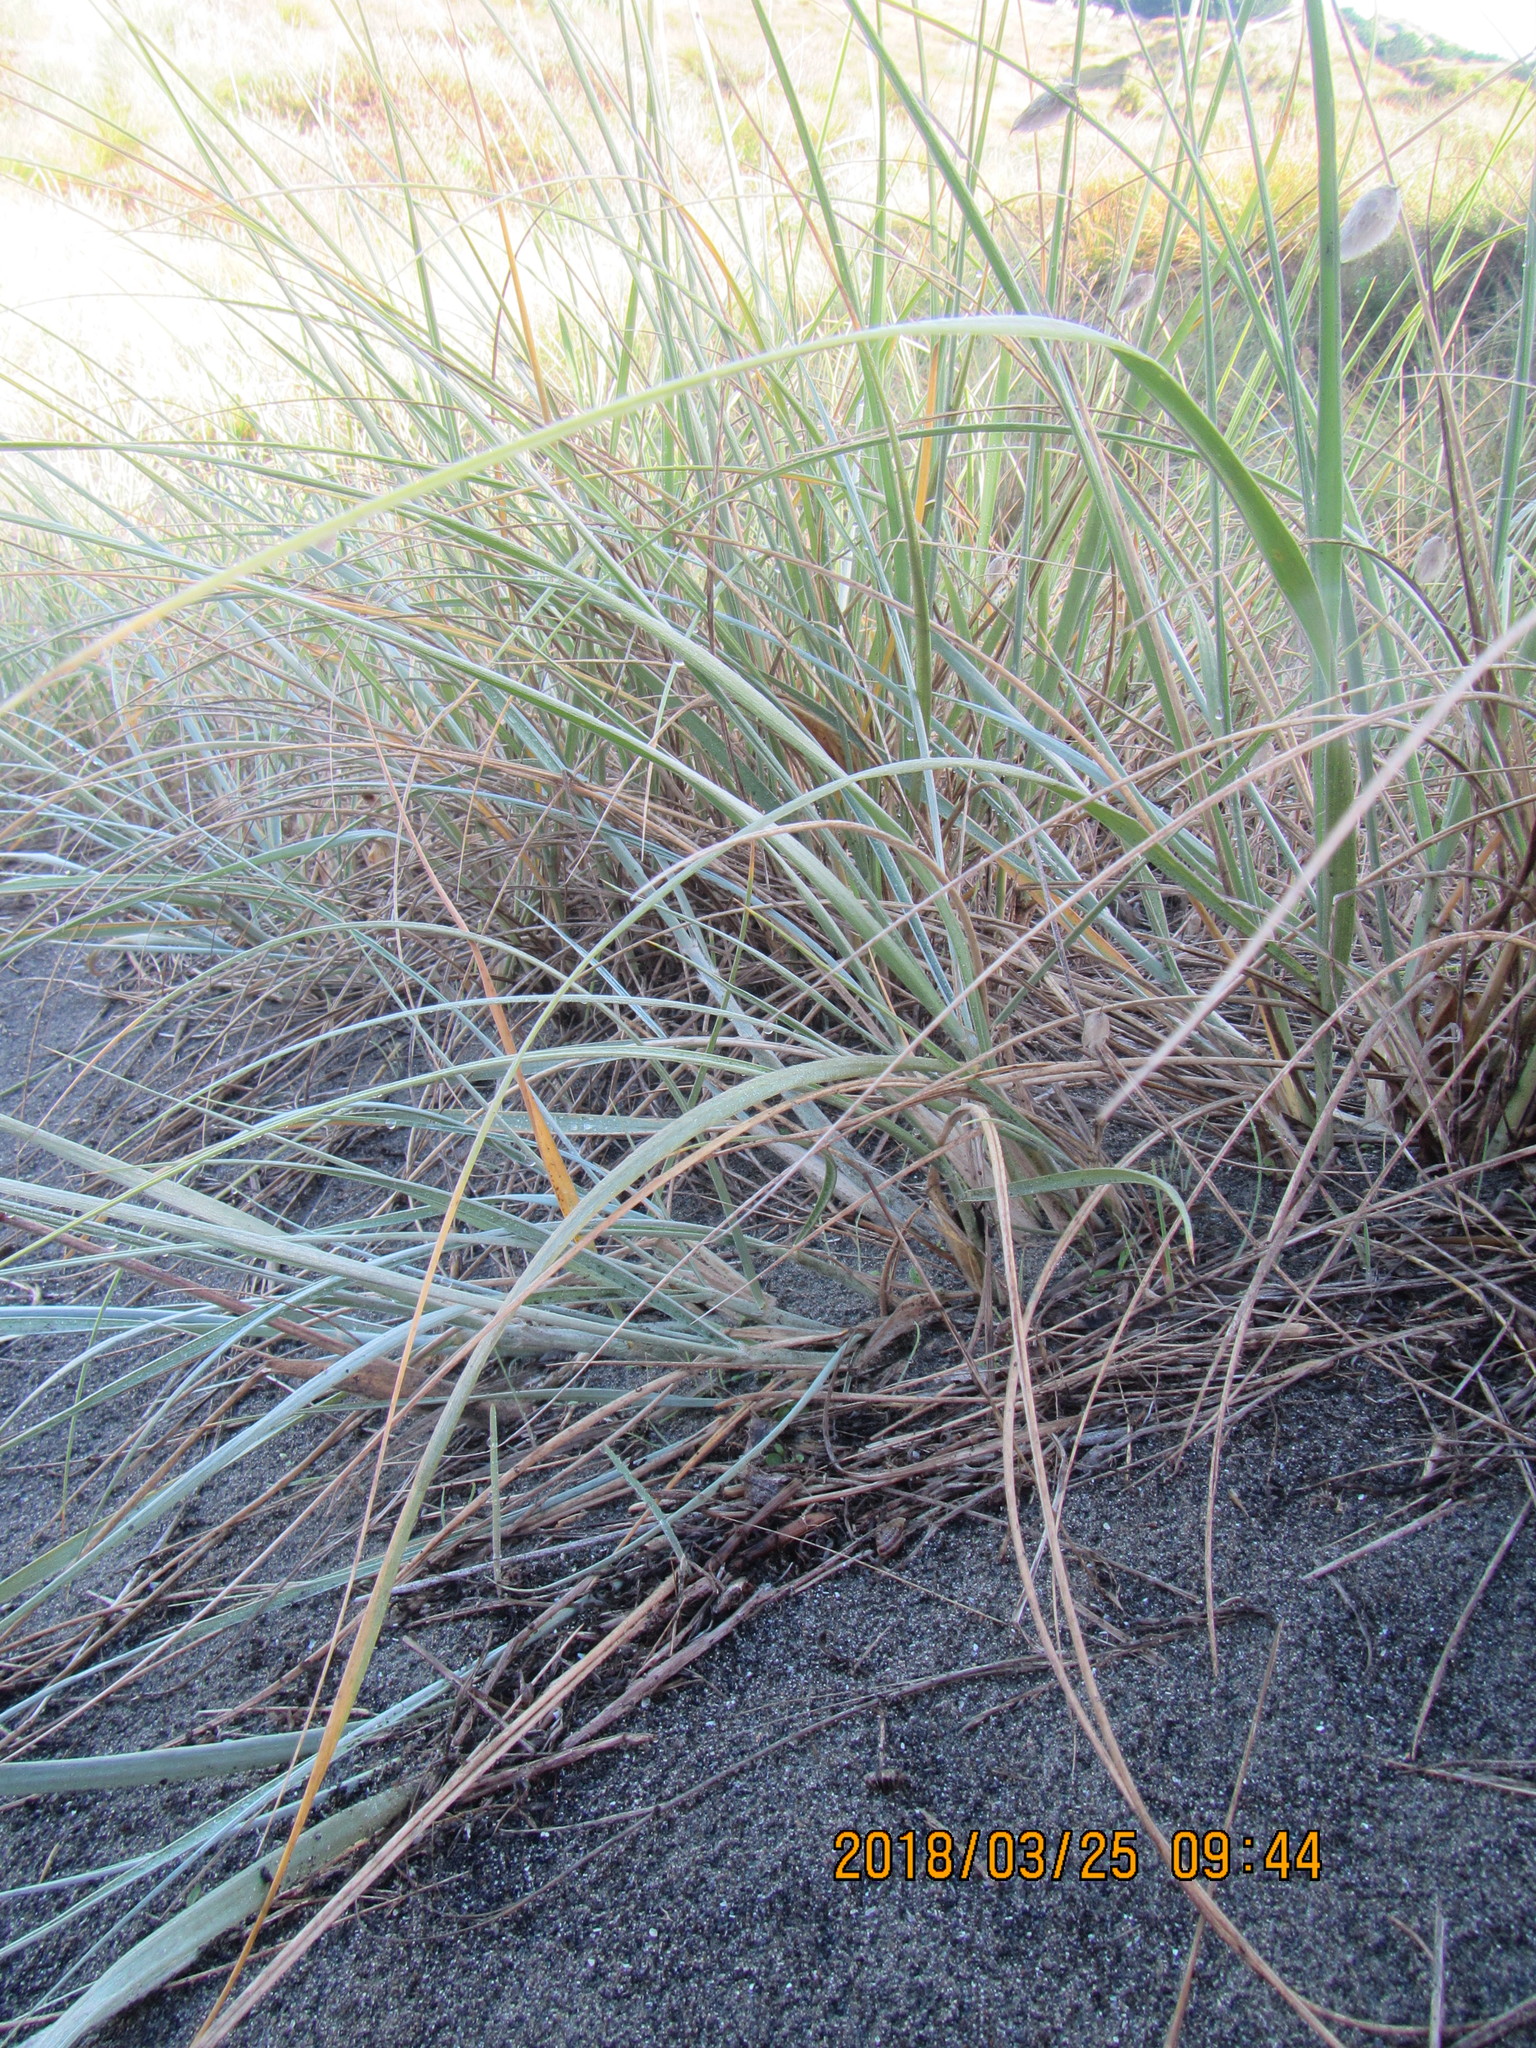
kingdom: Plantae
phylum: Tracheophyta
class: Liliopsida
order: Poales
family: Poaceae
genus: Spinifex
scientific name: Spinifex sericeus
